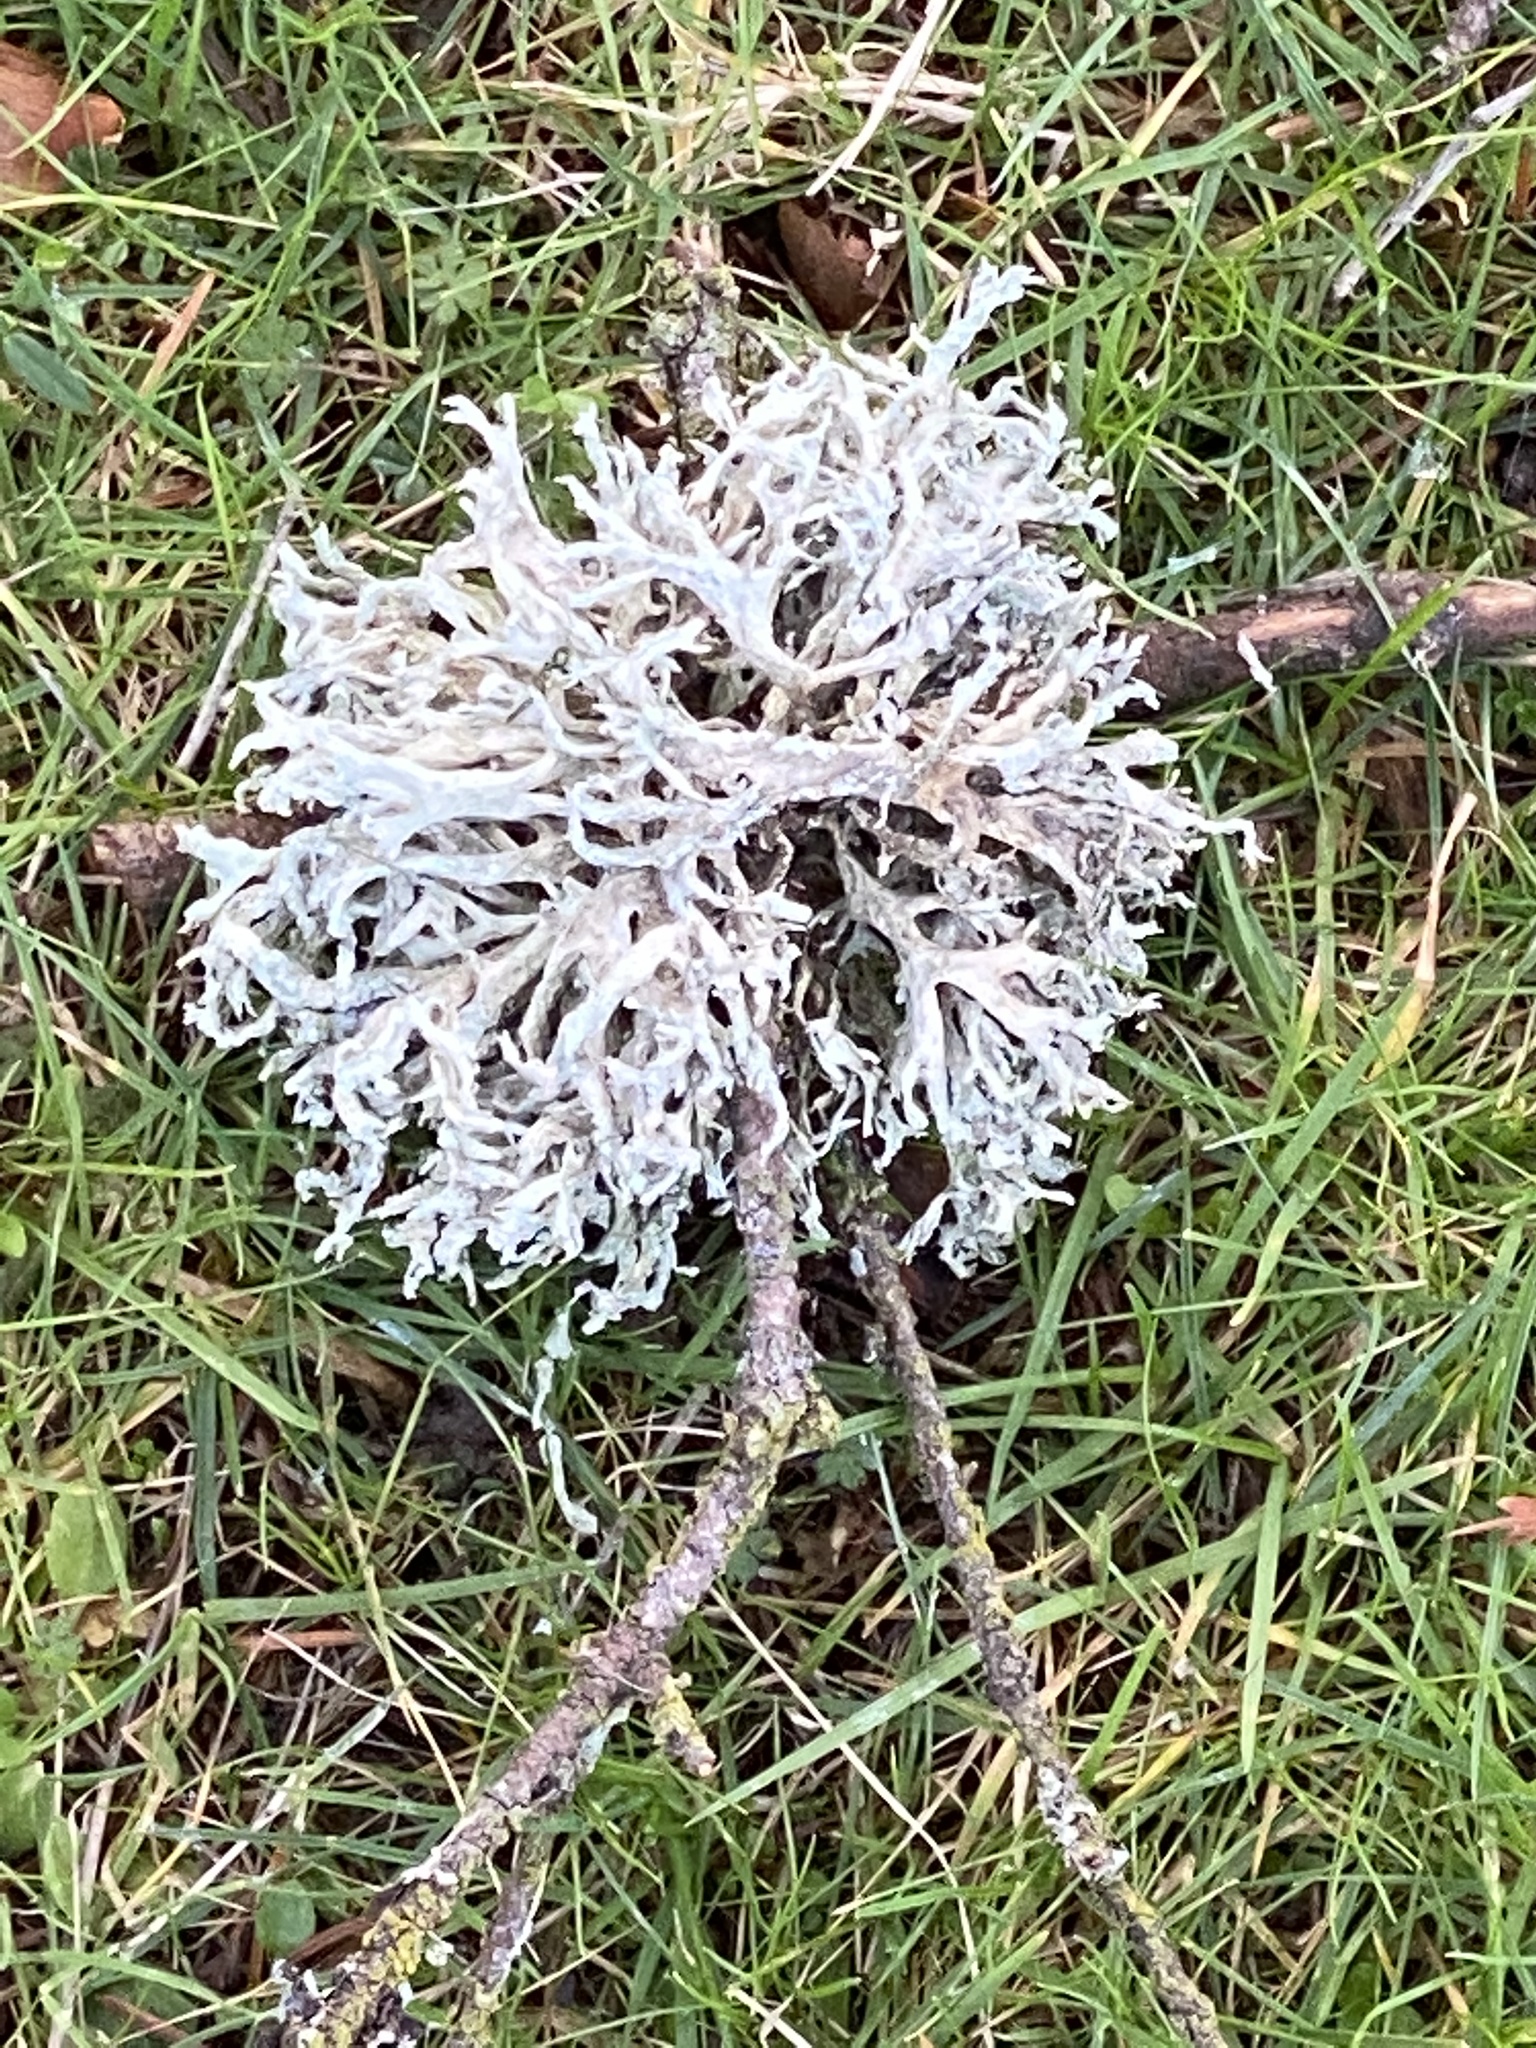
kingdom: Fungi
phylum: Ascomycota
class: Lecanoromycetes
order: Lecanorales
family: Parmeliaceae
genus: Evernia
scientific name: Evernia prunastri
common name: Oak moss
